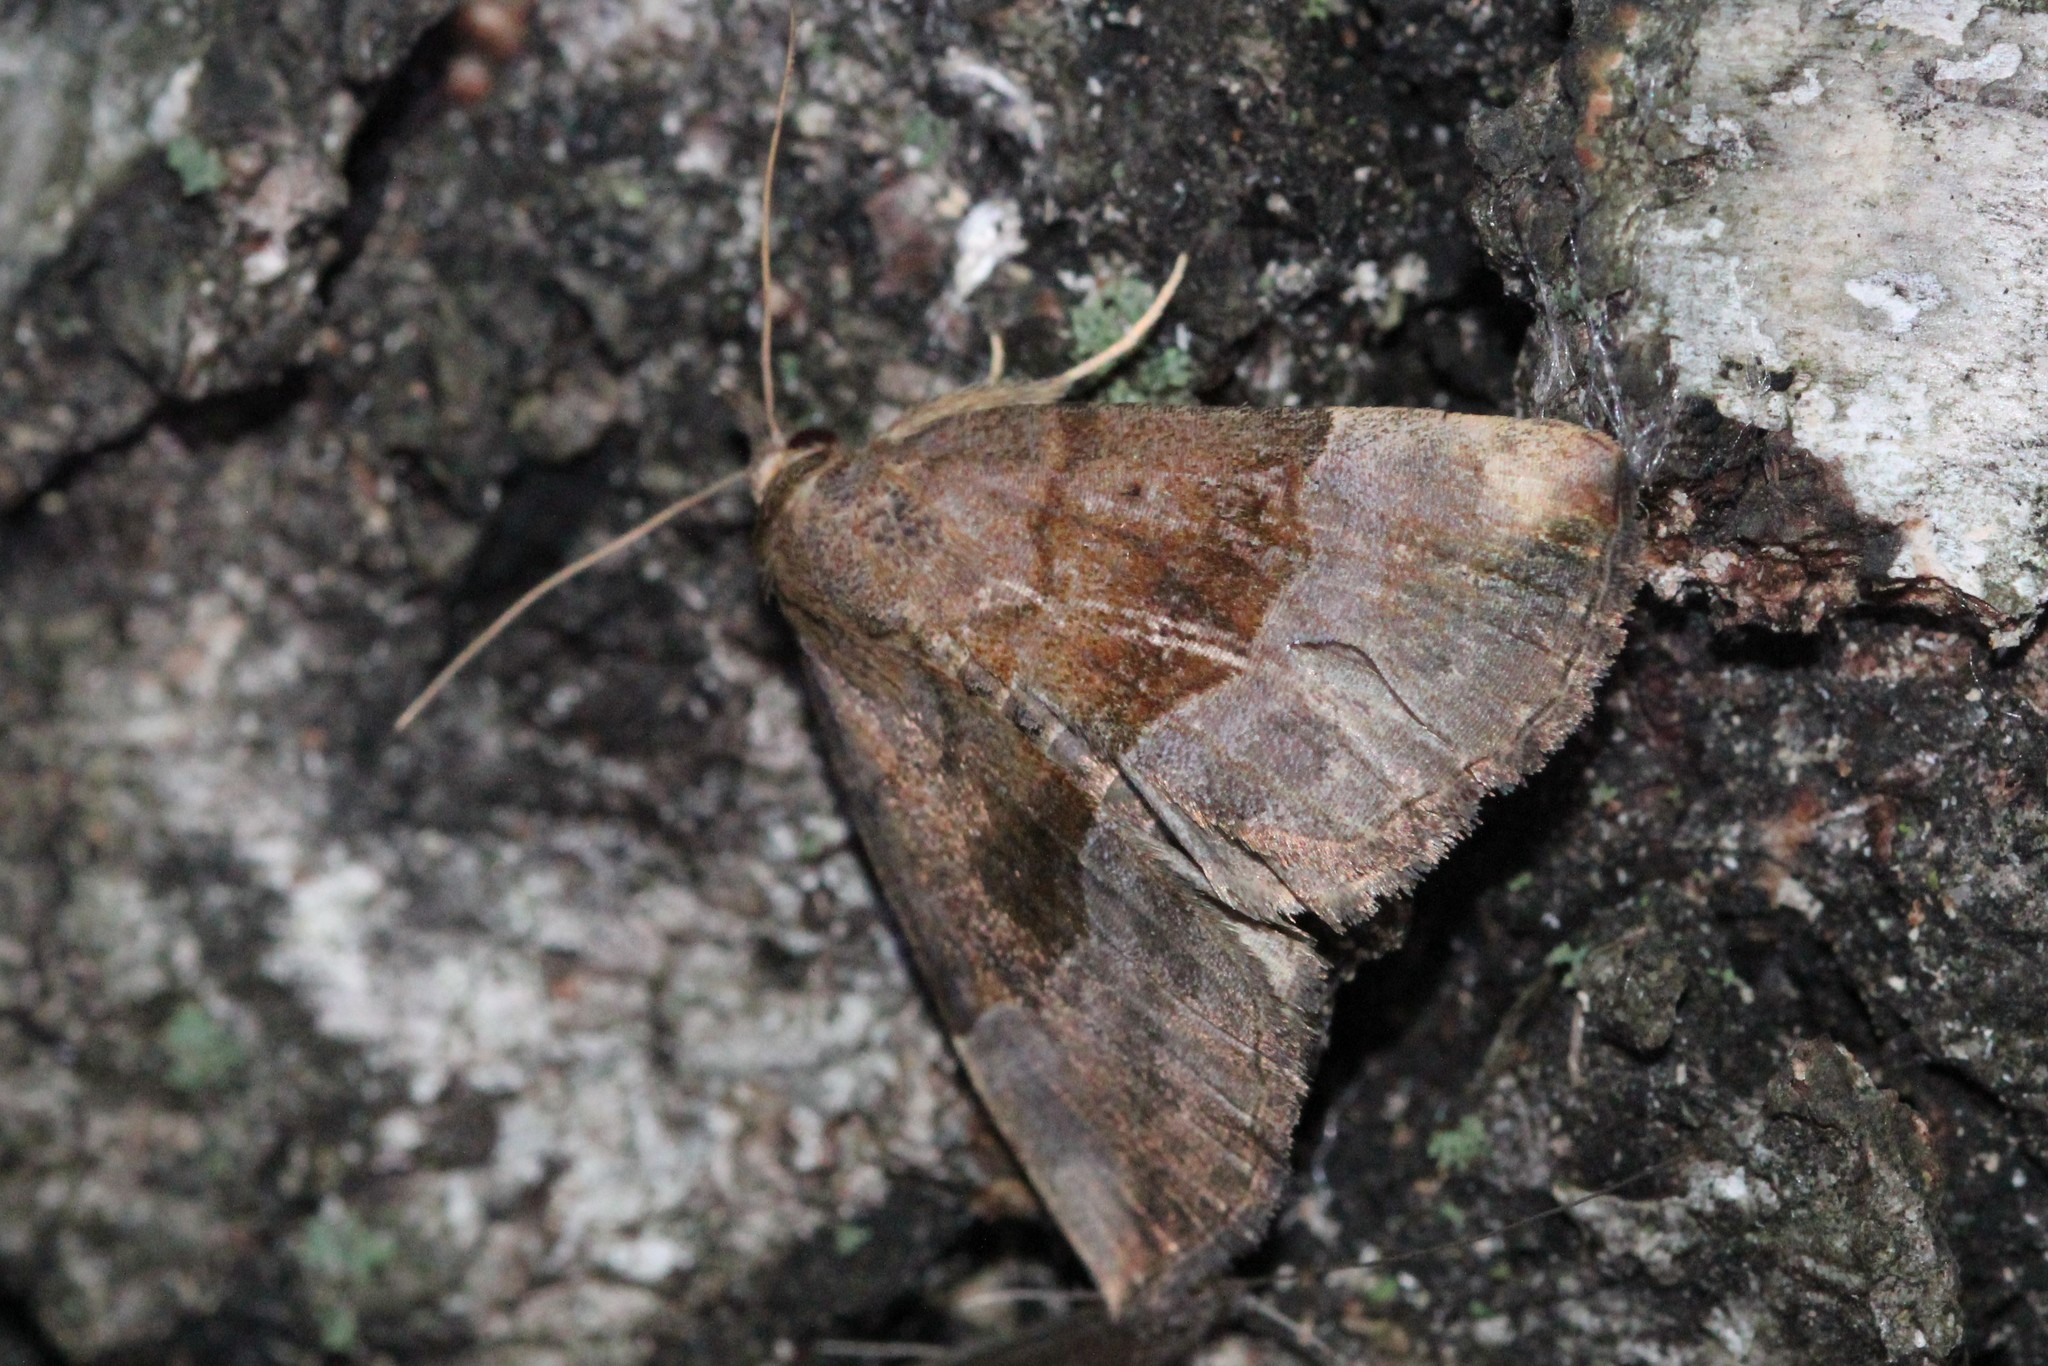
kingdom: Animalia
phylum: Arthropoda
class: Insecta
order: Lepidoptera
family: Erebidae
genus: Hypena
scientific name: Hypena madefactalis
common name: Gray-edged snout
